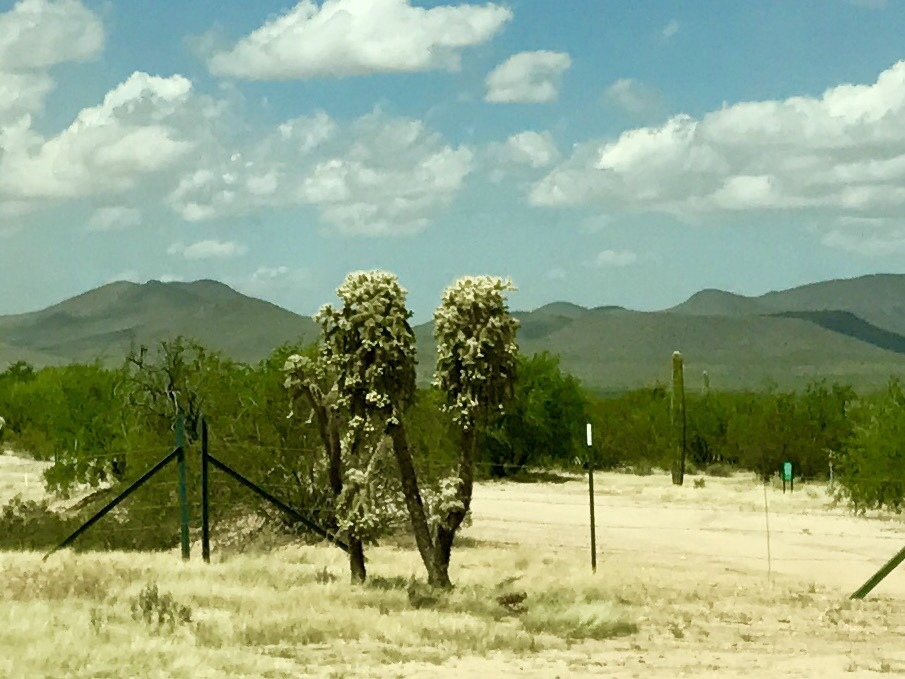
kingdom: Plantae
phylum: Tracheophyta
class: Magnoliopsida
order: Caryophyllales
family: Cactaceae
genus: Cylindropuntia
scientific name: Cylindropuntia fulgida
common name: Jumping cholla
